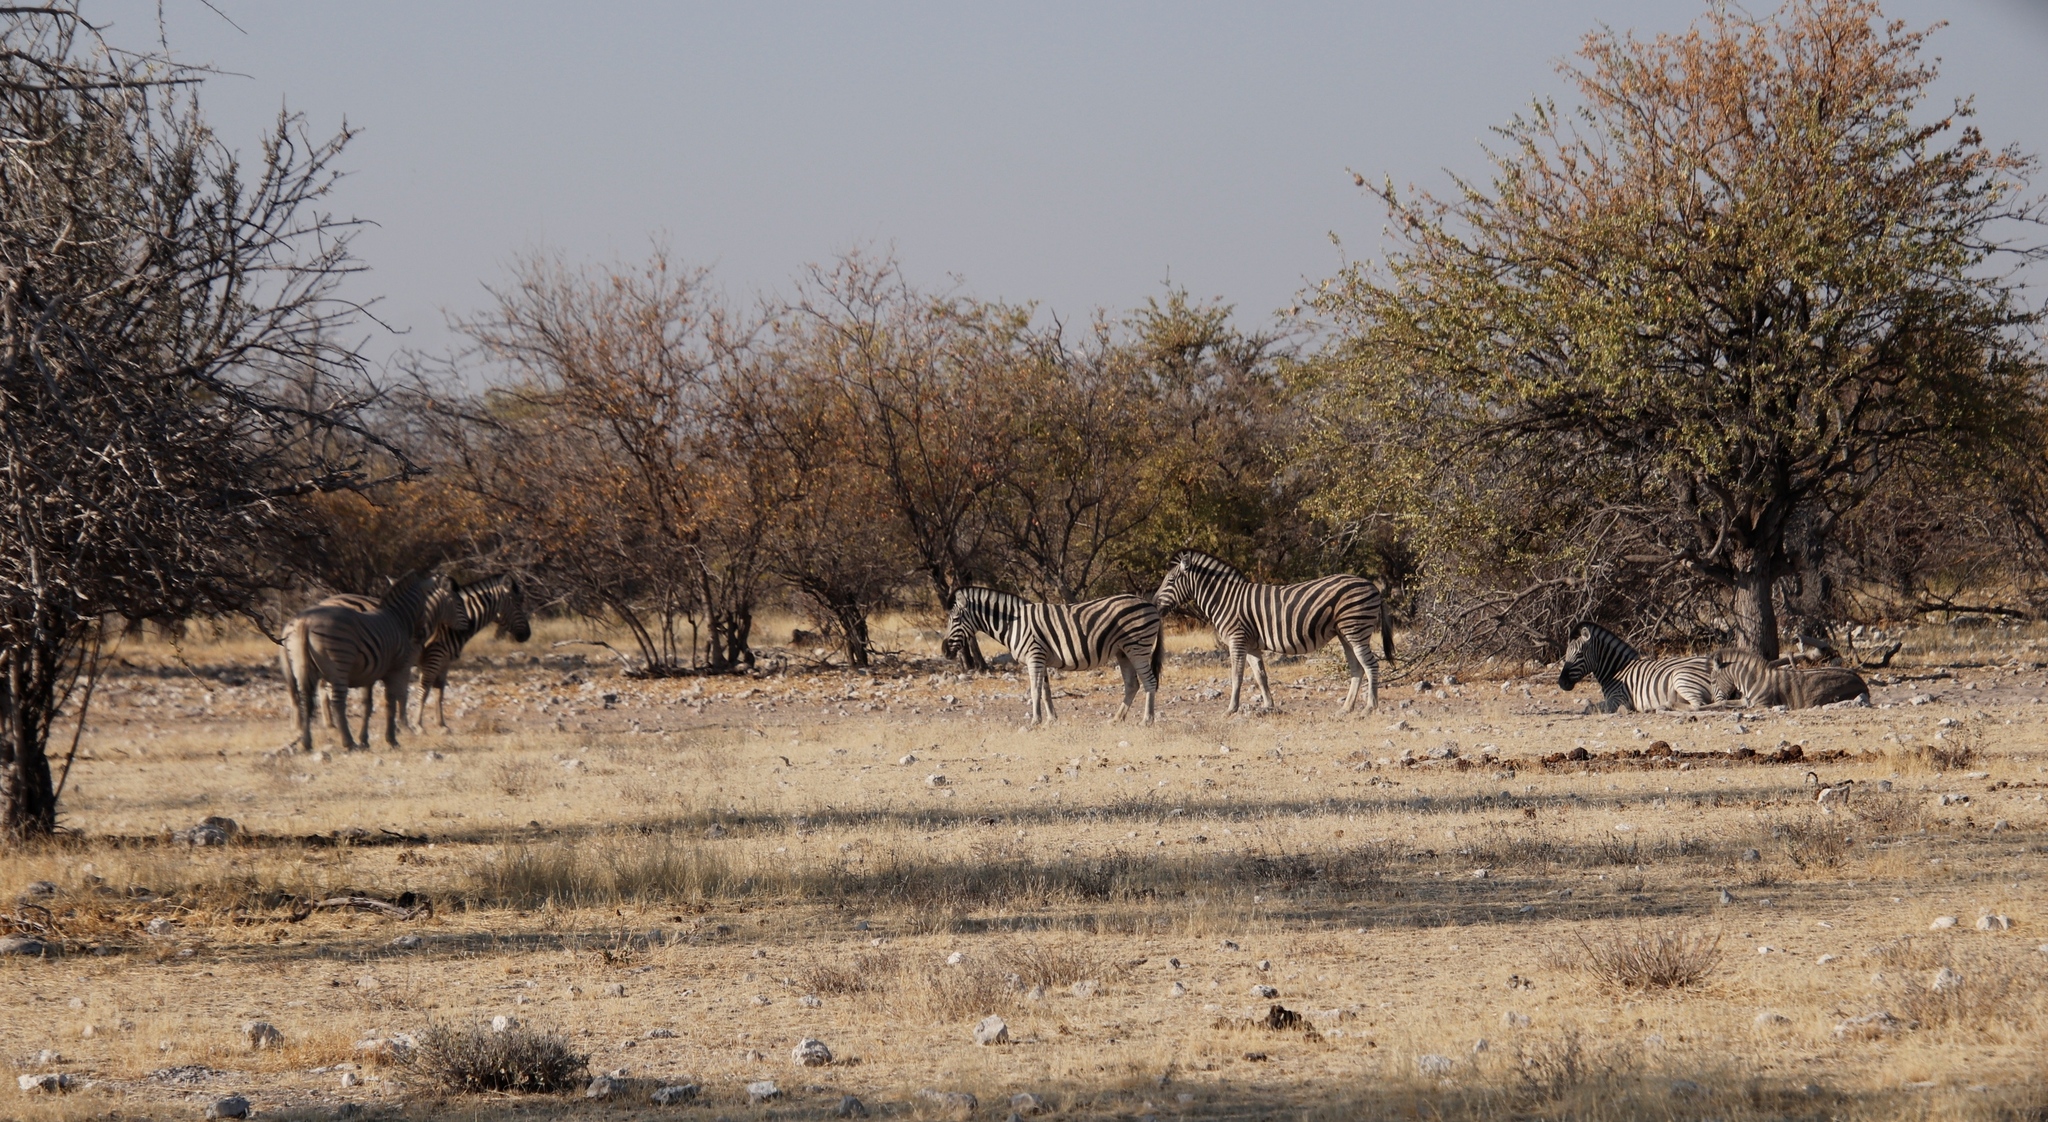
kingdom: Plantae
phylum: Tracheophyta
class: Magnoliopsida
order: Fabales
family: Fabaceae
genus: Colophospermum
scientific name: Colophospermum mopane
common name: Mopane
